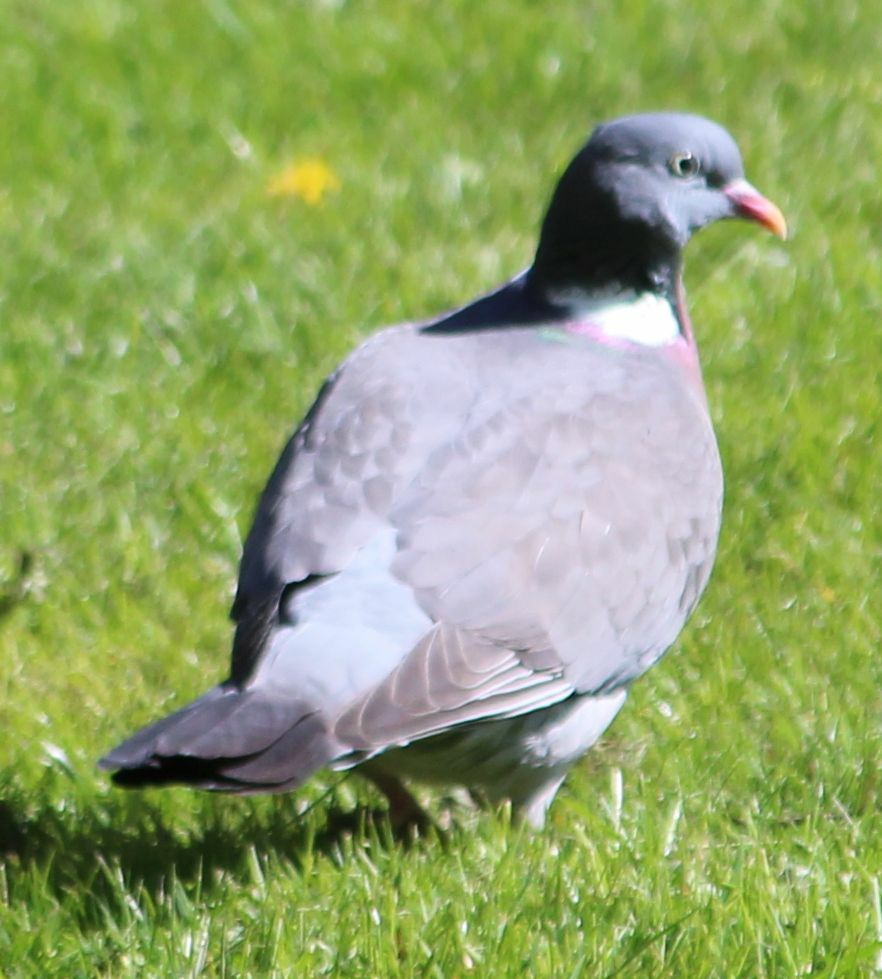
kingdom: Animalia
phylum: Chordata
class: Aves
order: Columbiformes
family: Columbidae
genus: Columba
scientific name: Columba palumbus
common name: Common wood pigeon
